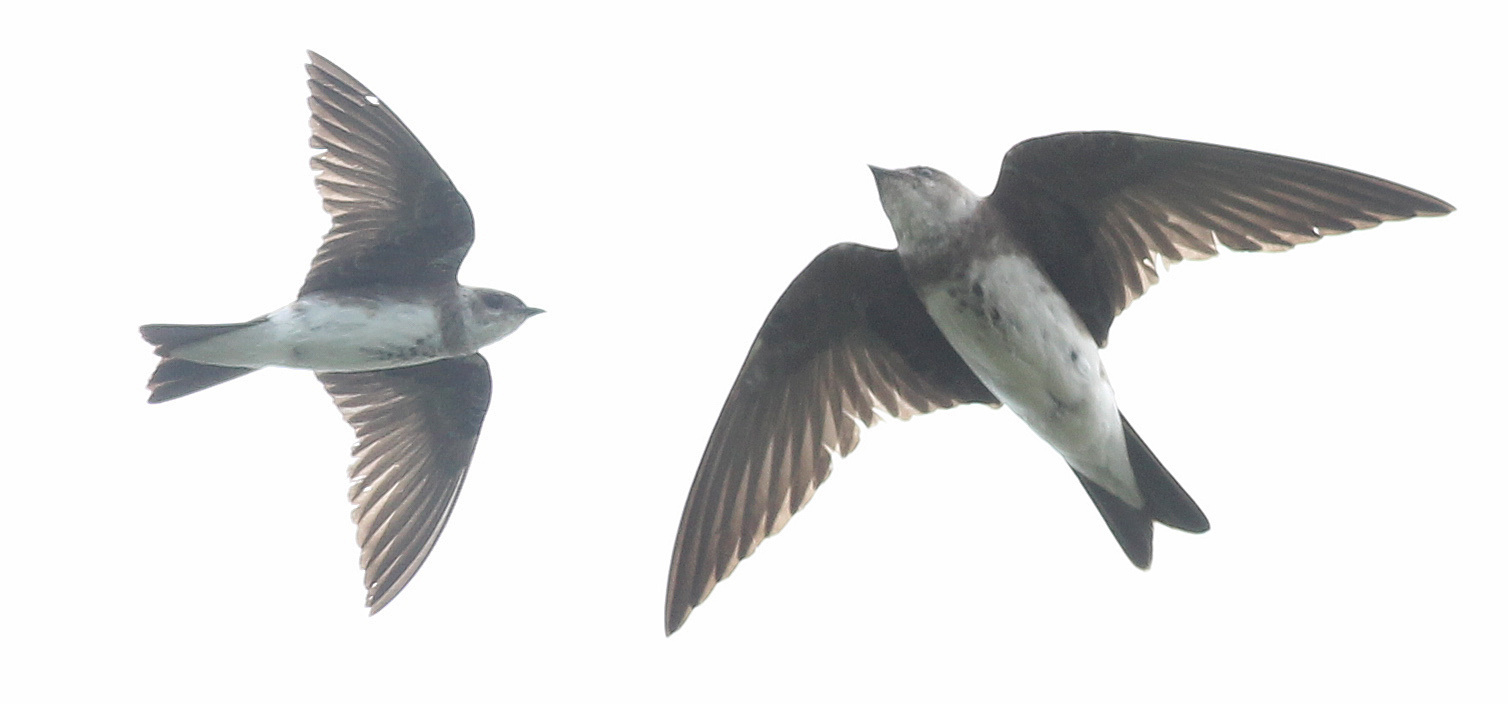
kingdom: Animalia
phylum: Chordata
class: Aves
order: Passeriformes
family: Hirundinidae
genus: Progne
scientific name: Progne tapera
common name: Brown-chested martin
